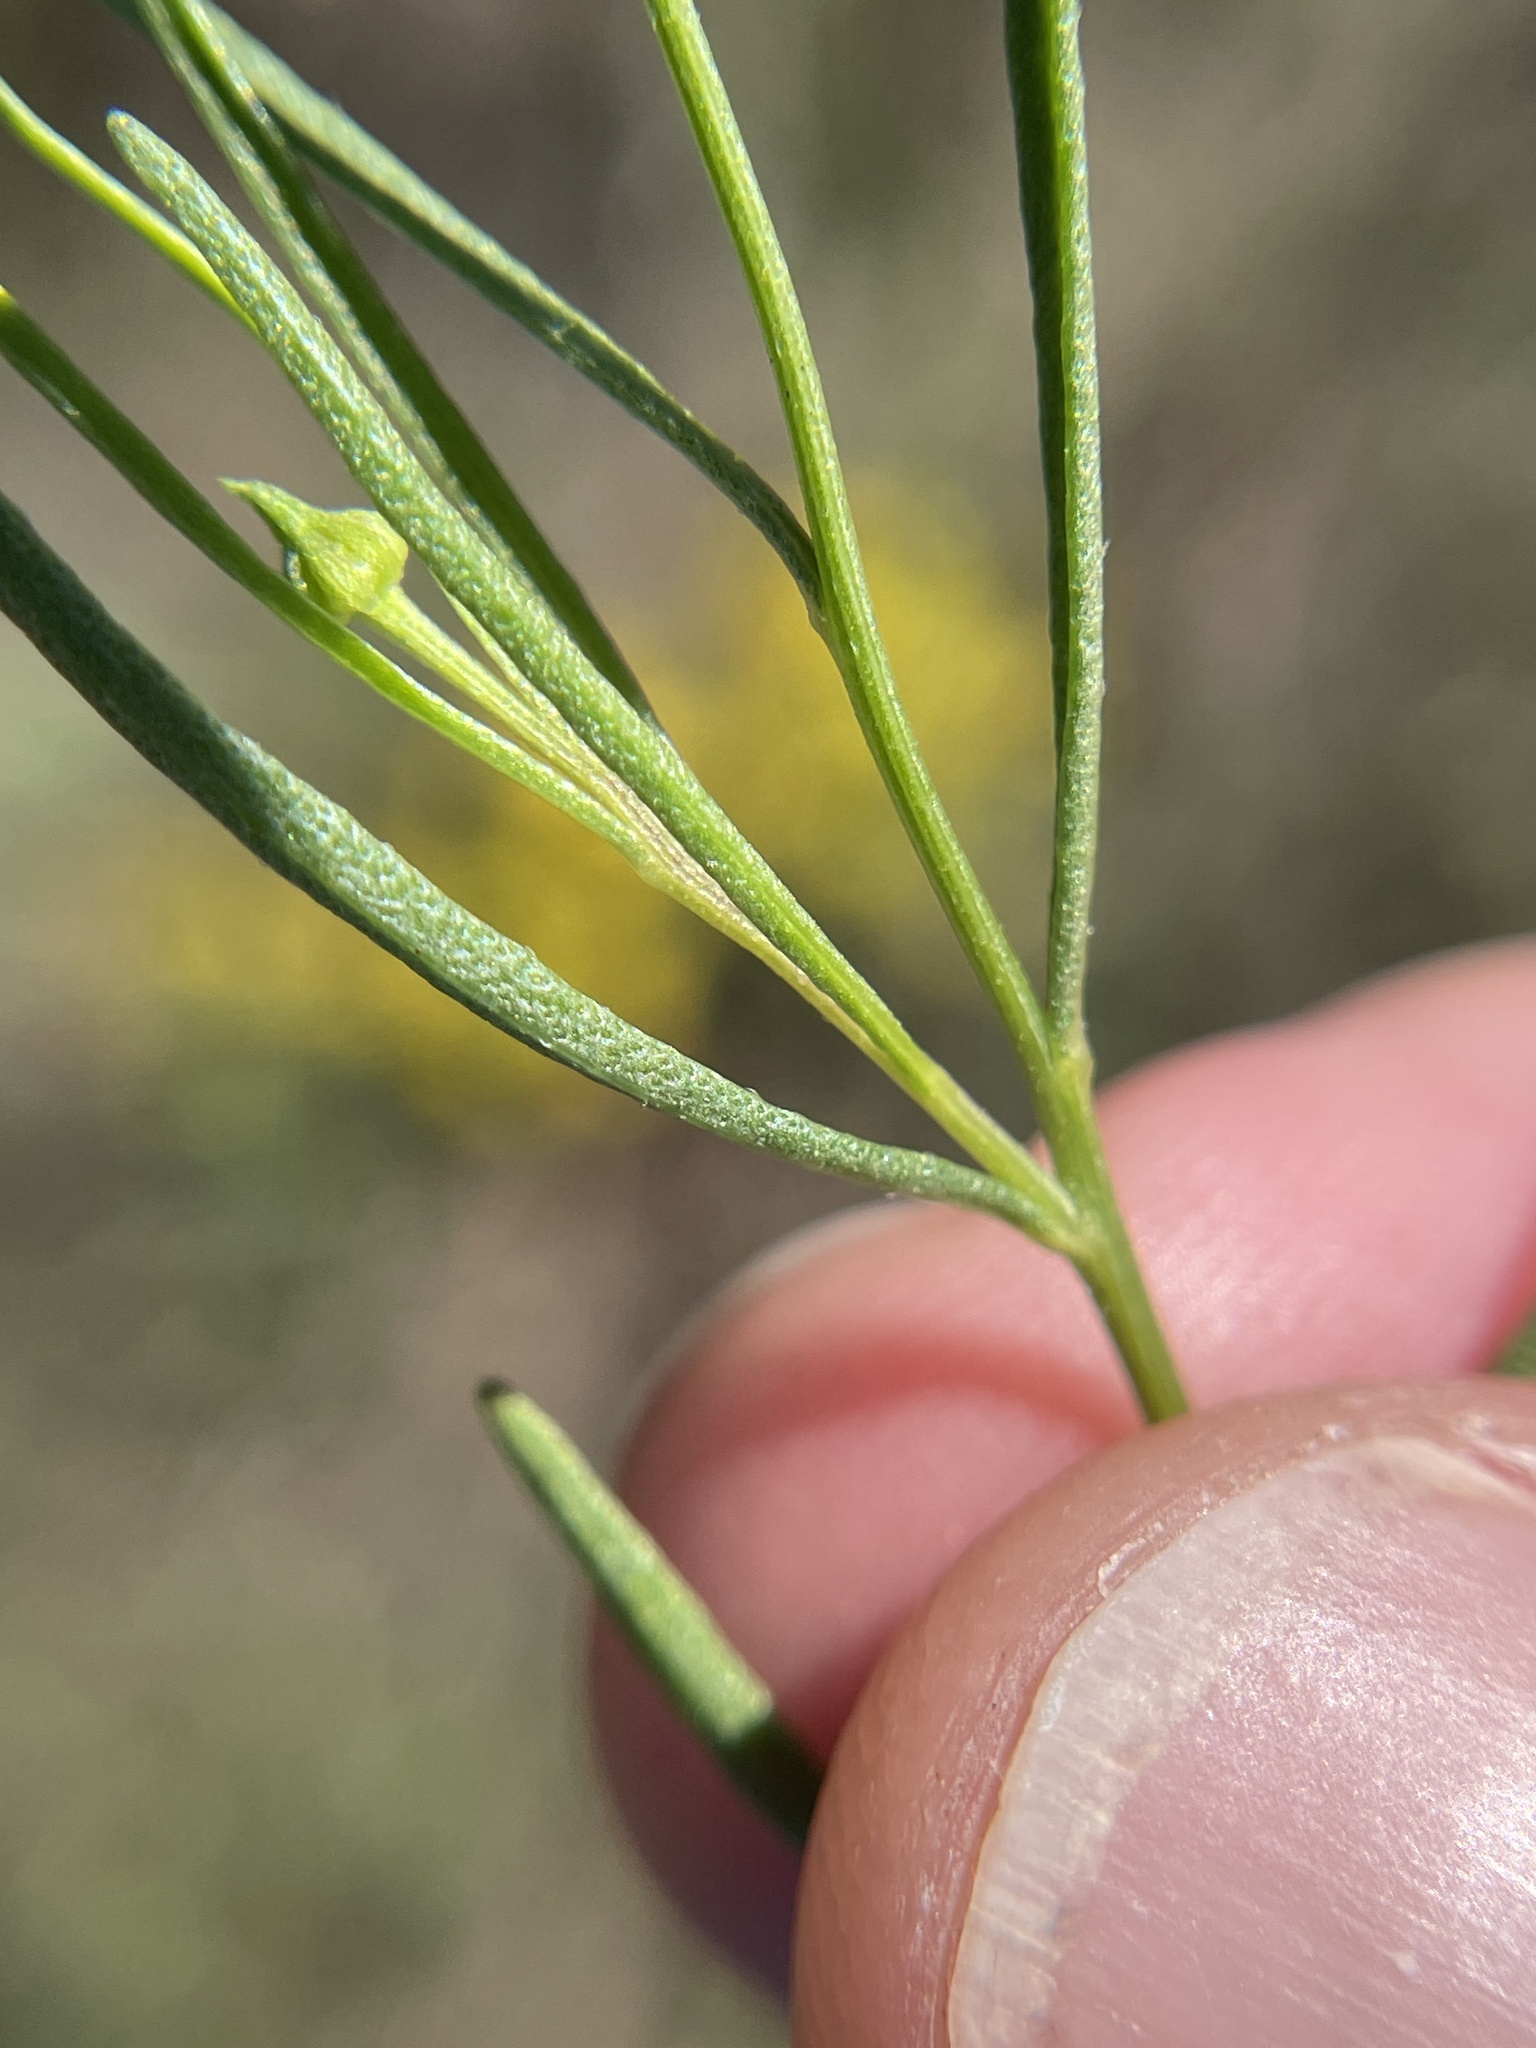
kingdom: Plantae
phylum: Tracheophyta
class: Magnoliopsida
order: Asterales
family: Asteraceae
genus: Helenium
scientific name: Helenium amarum
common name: Bitter sneezeweed
